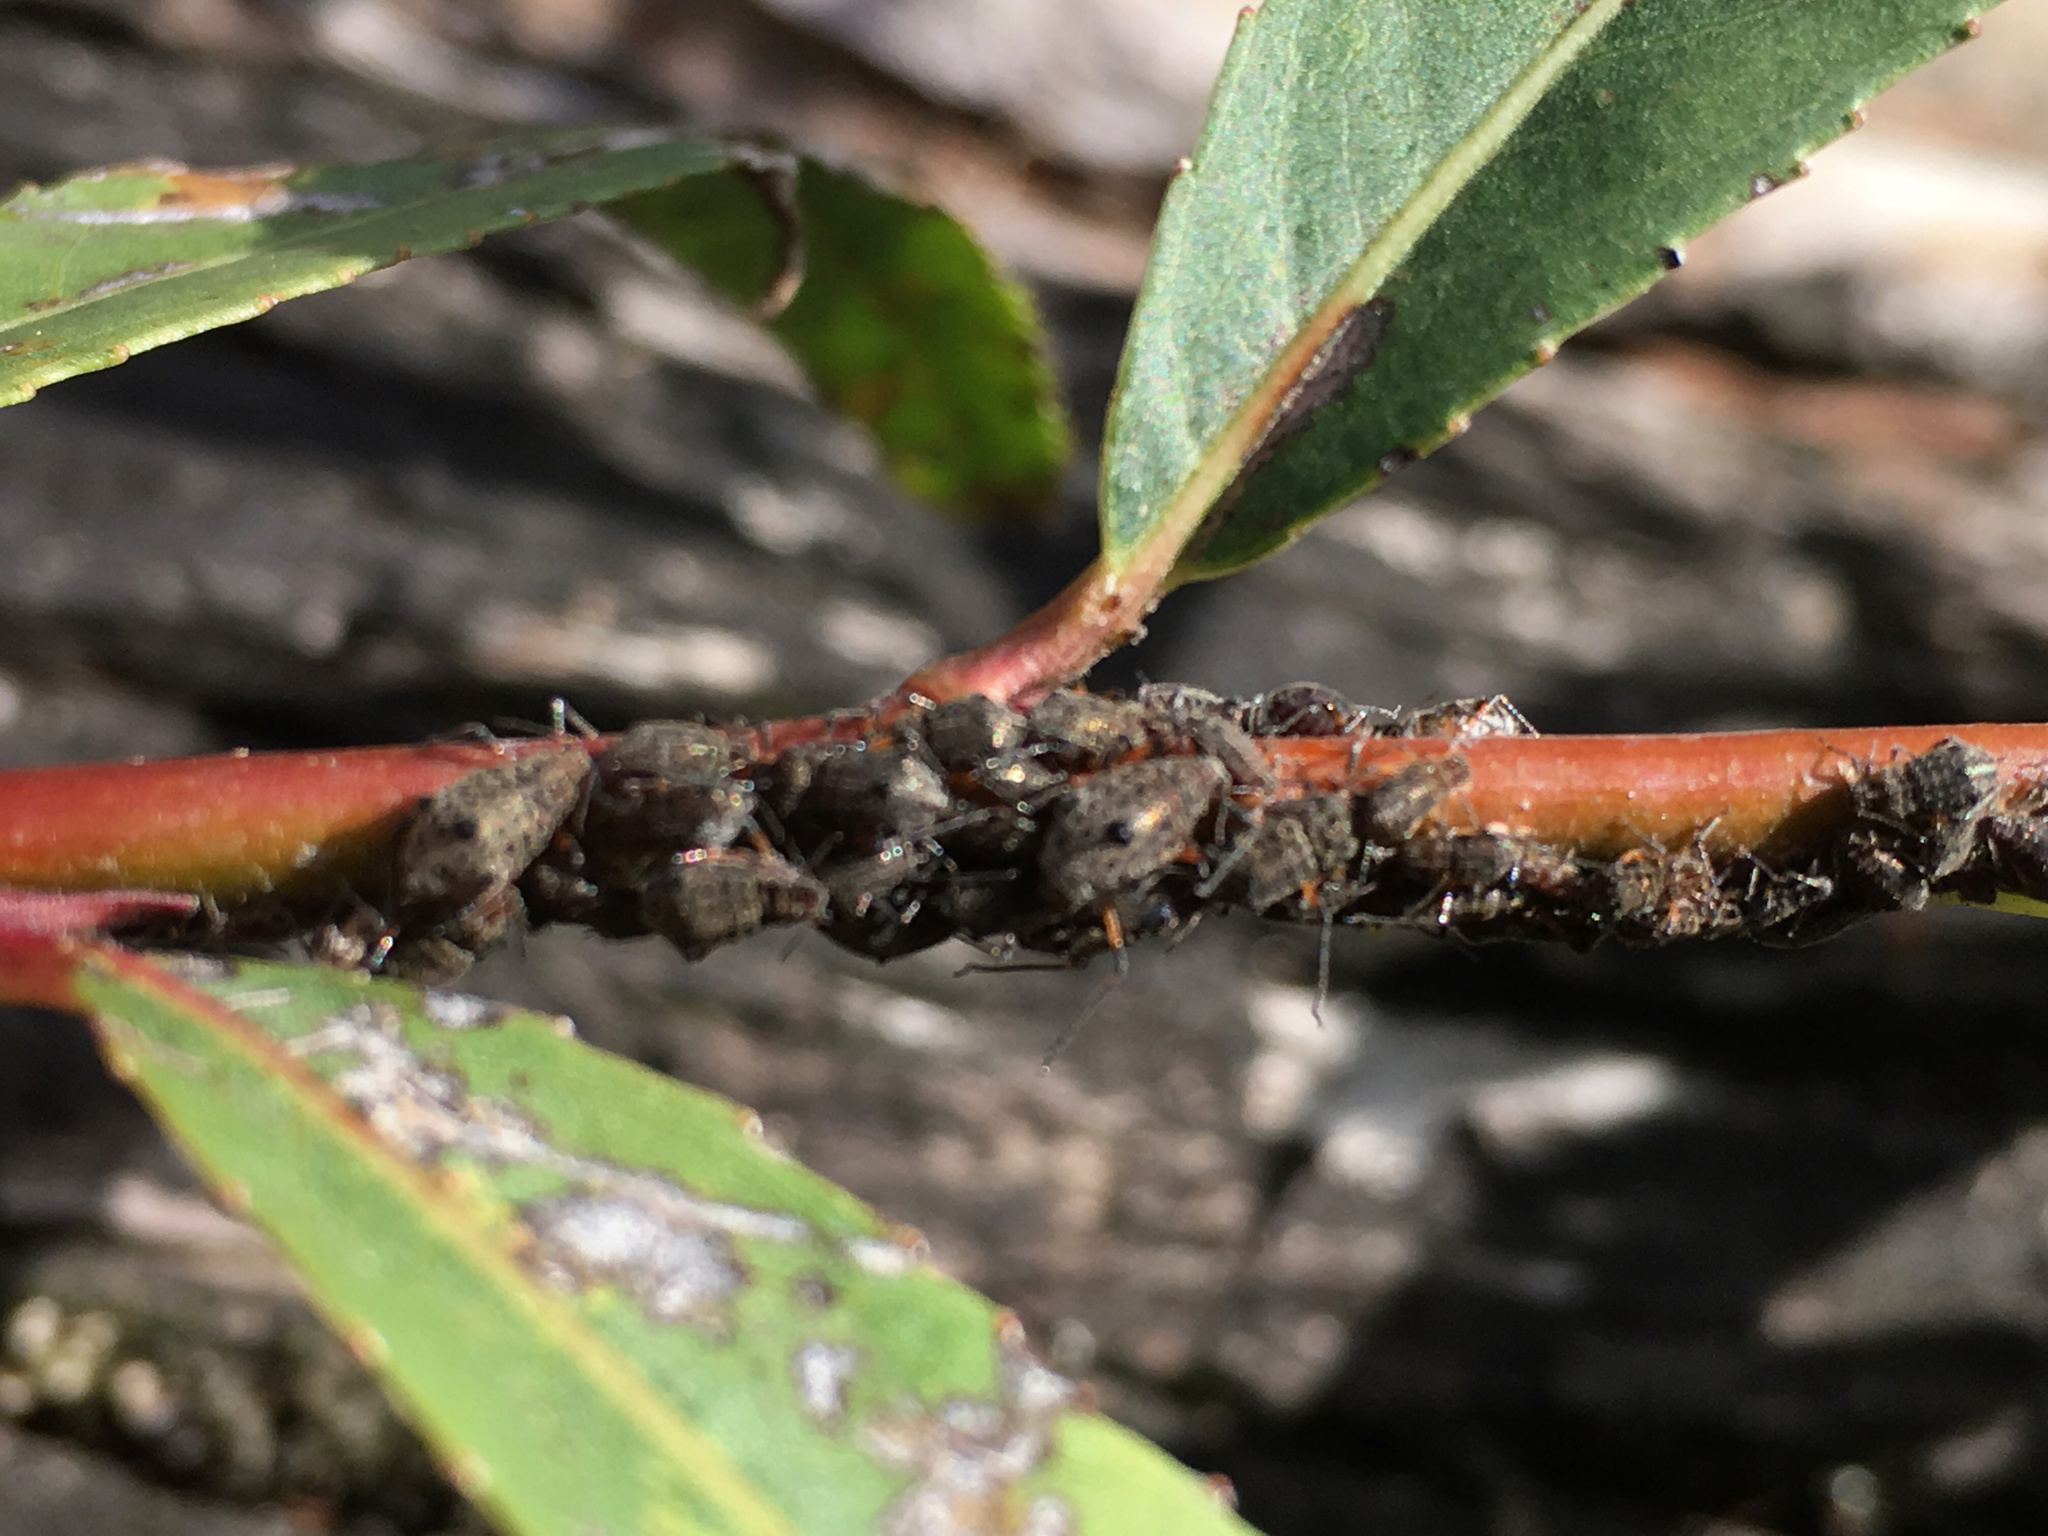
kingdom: Animalia
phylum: Arthropoda
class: Insecta
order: Hemiptera
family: Aphididae
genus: Tuberolachnus
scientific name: Tuberolachnus salignus
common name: Giant willow aphid
